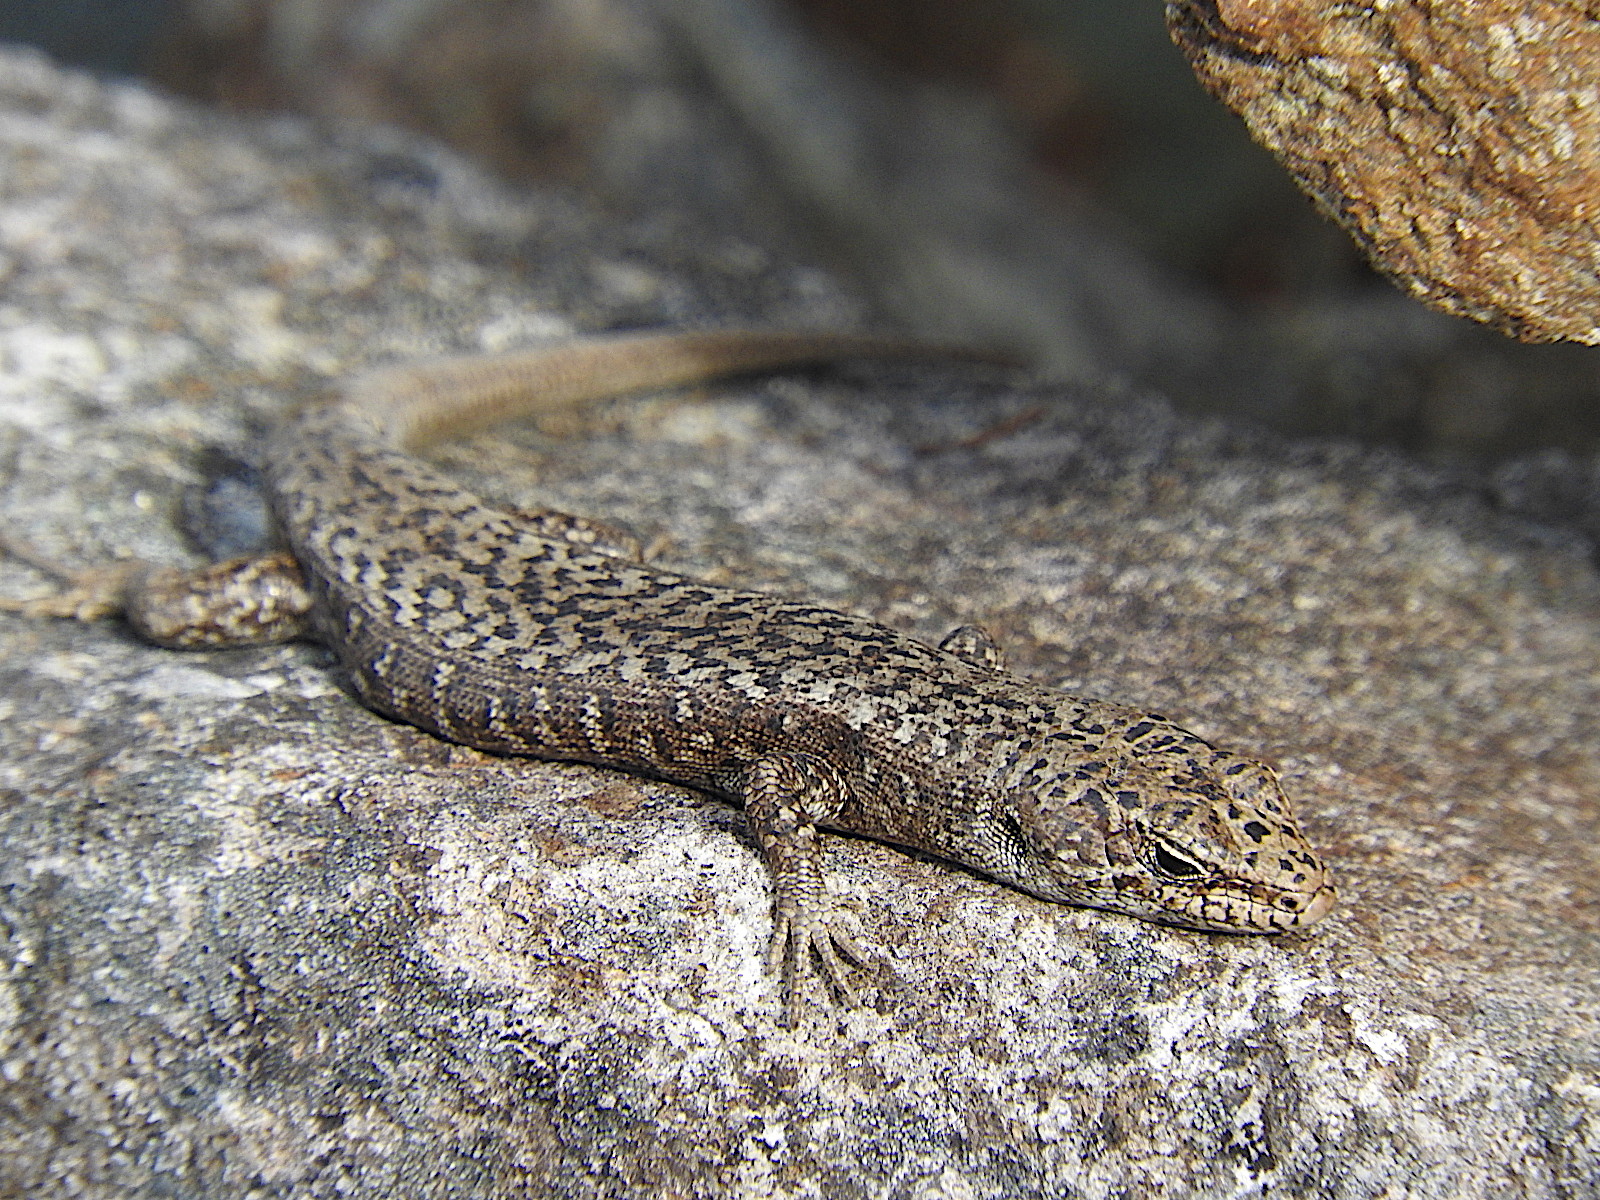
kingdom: Animalia
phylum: Chordata
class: Squamata
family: Scincidae
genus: Carinascincus
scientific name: Carinascincus ocellatus
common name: Ocellated cool-skink
